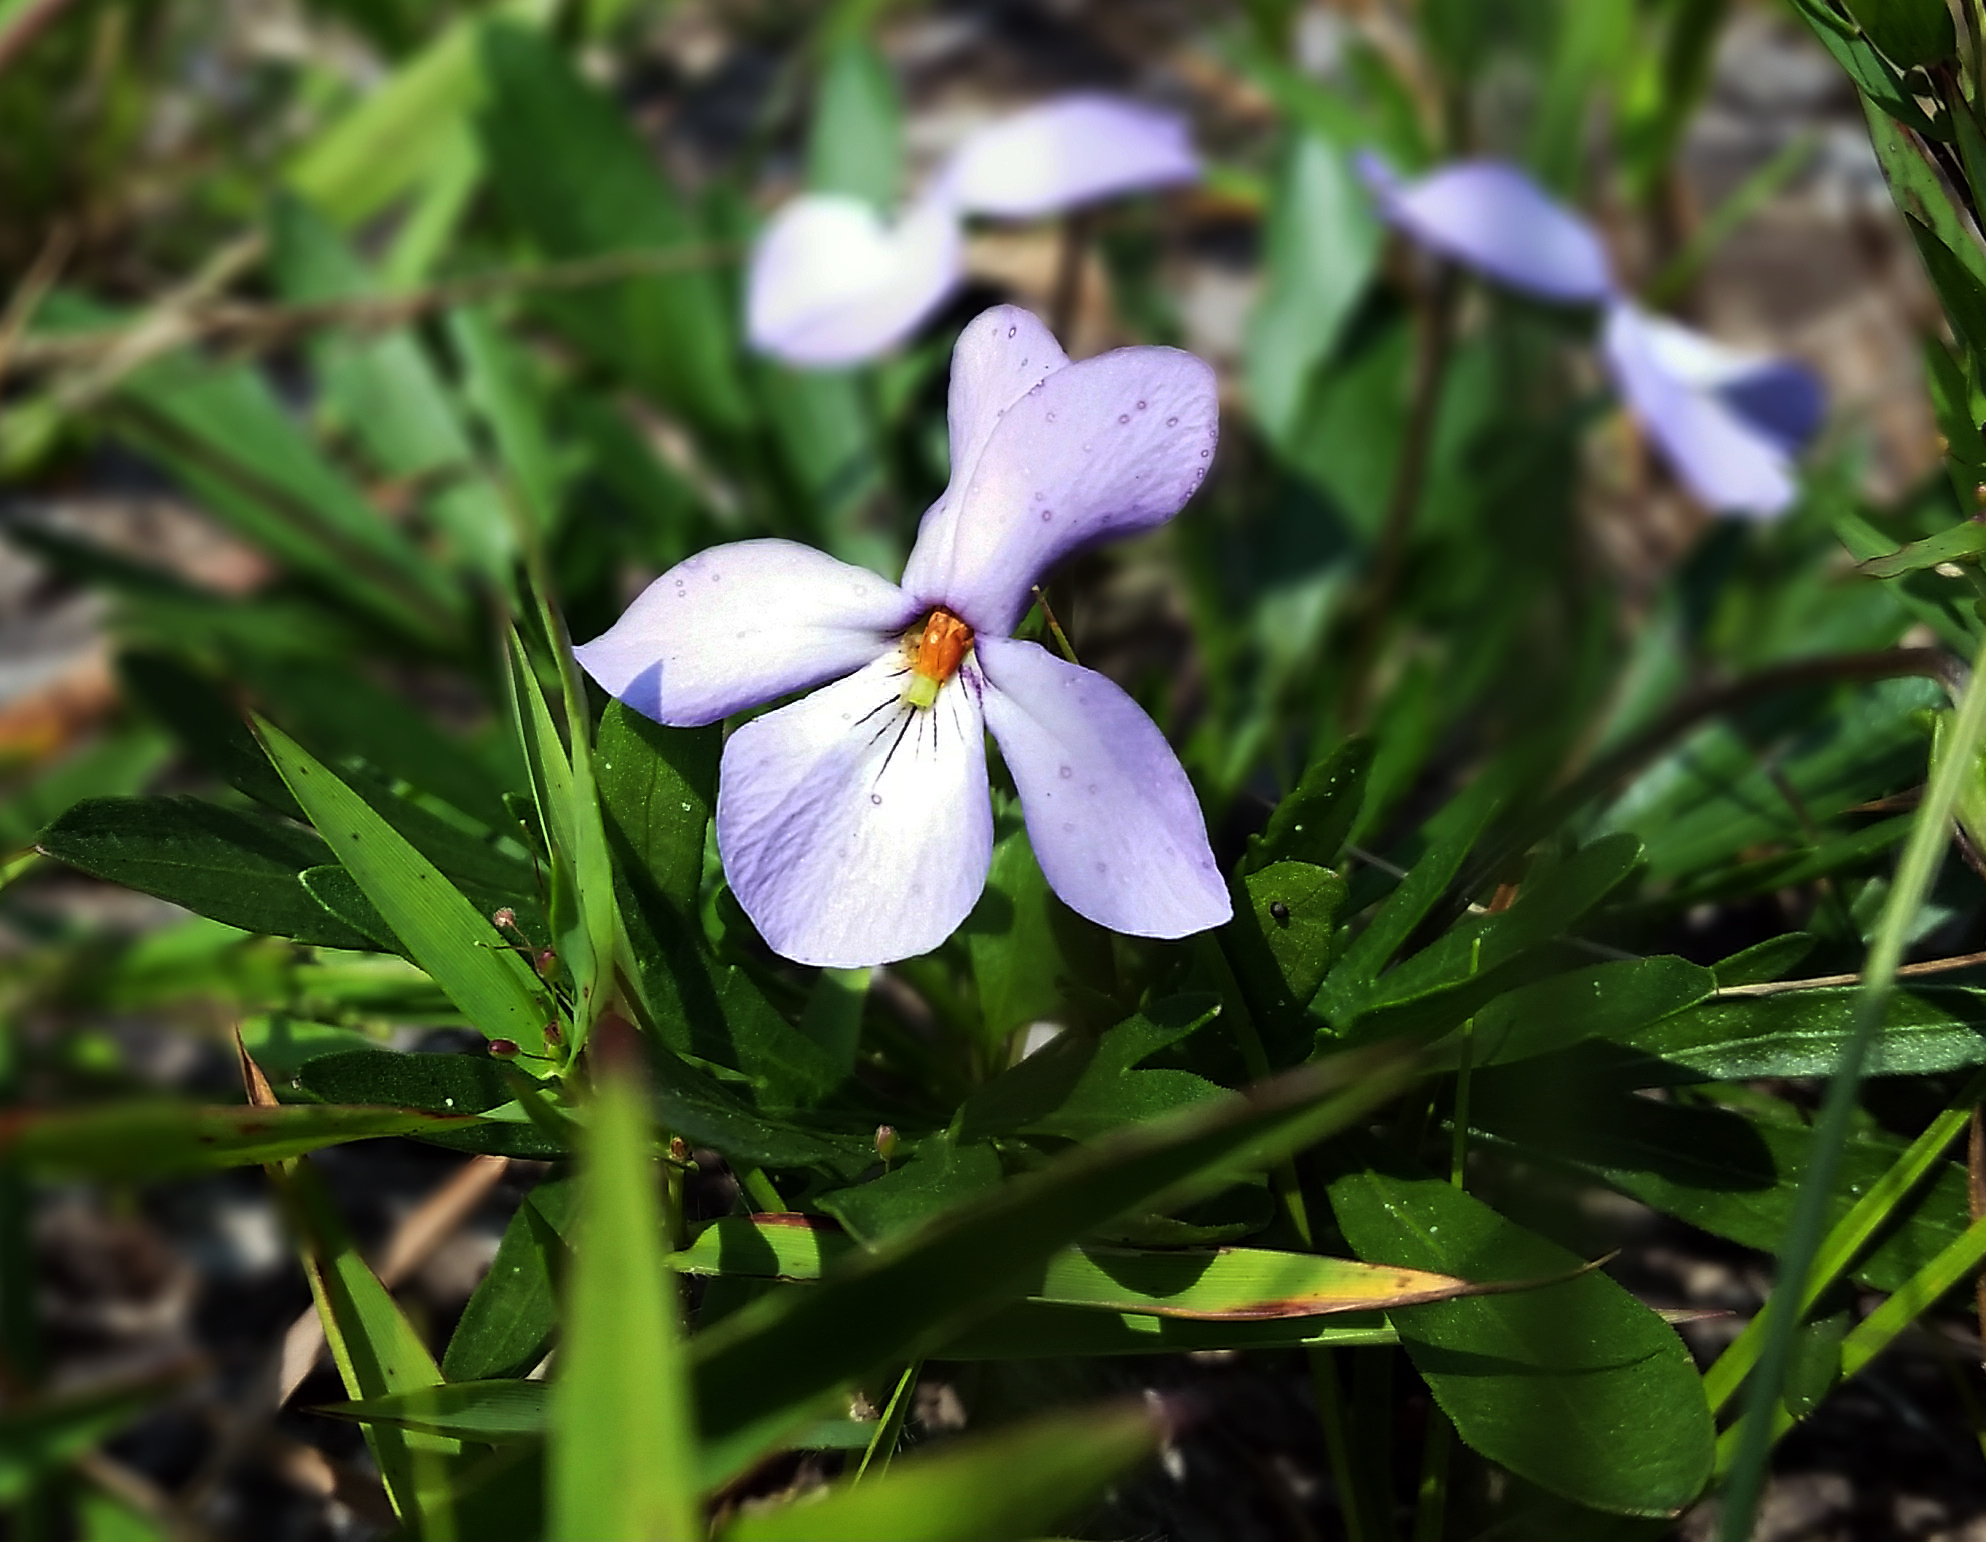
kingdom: Plantae
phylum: Tracheophyta
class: Magnoliopsida
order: Malpighiales
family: Violaceae
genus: Viola
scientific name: Viola pedata
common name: Pansy violet
